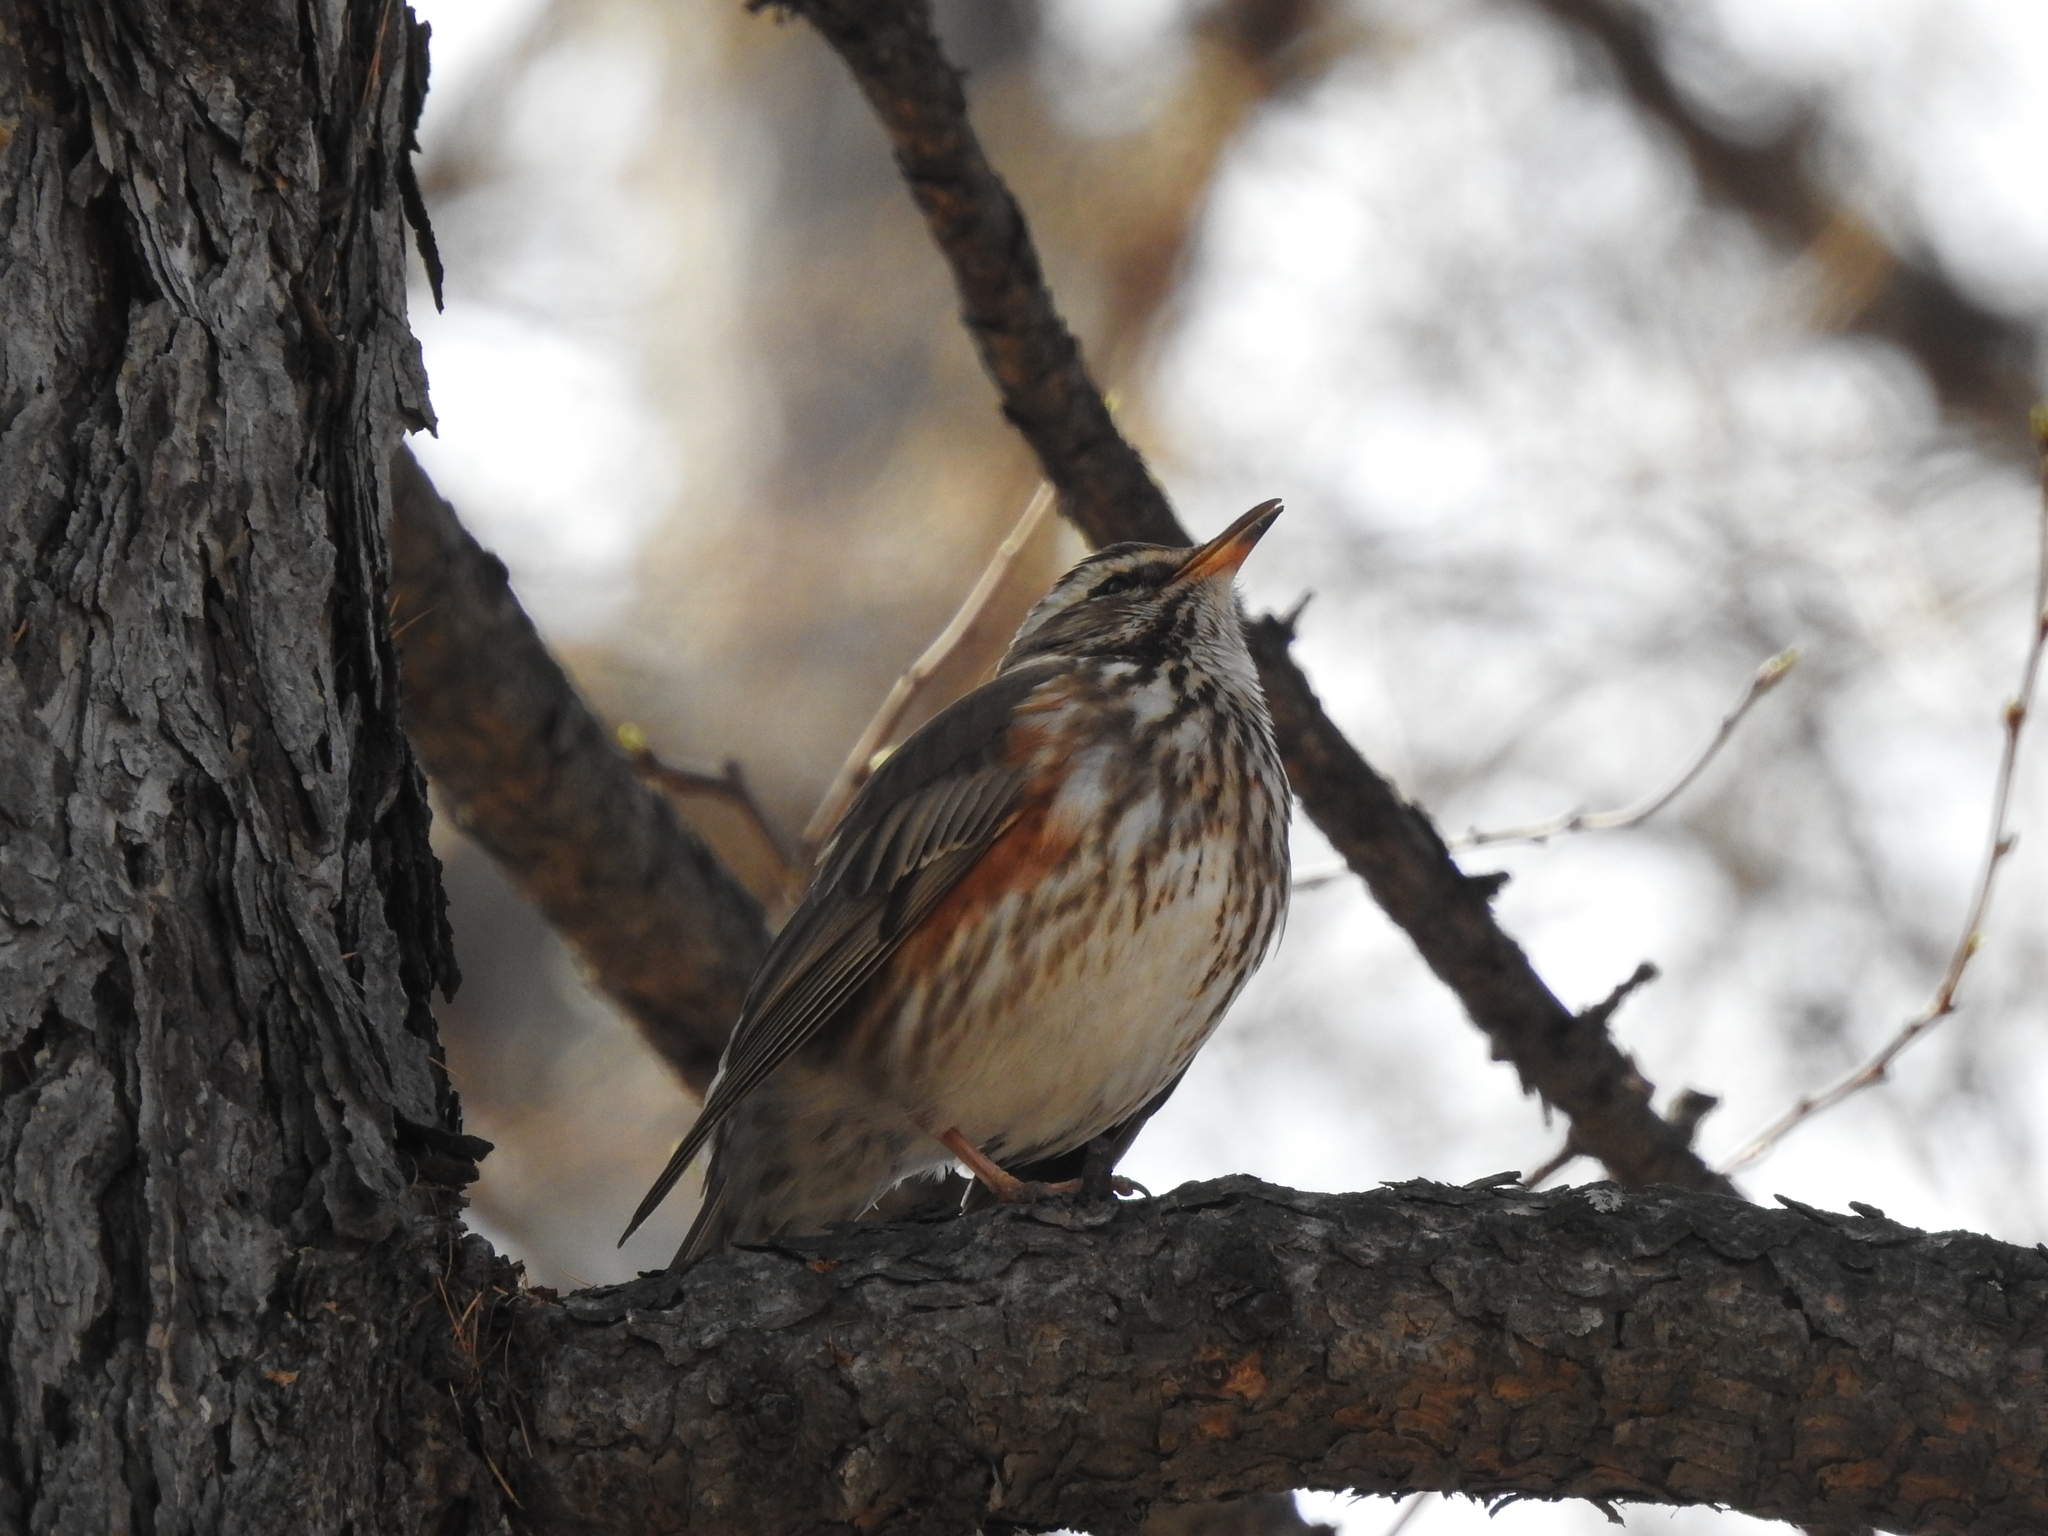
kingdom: Animalia
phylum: Chordata
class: Aves
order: Passeriformes
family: Turdidae
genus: Turdus
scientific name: Turdus iliacus
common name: Redwing
